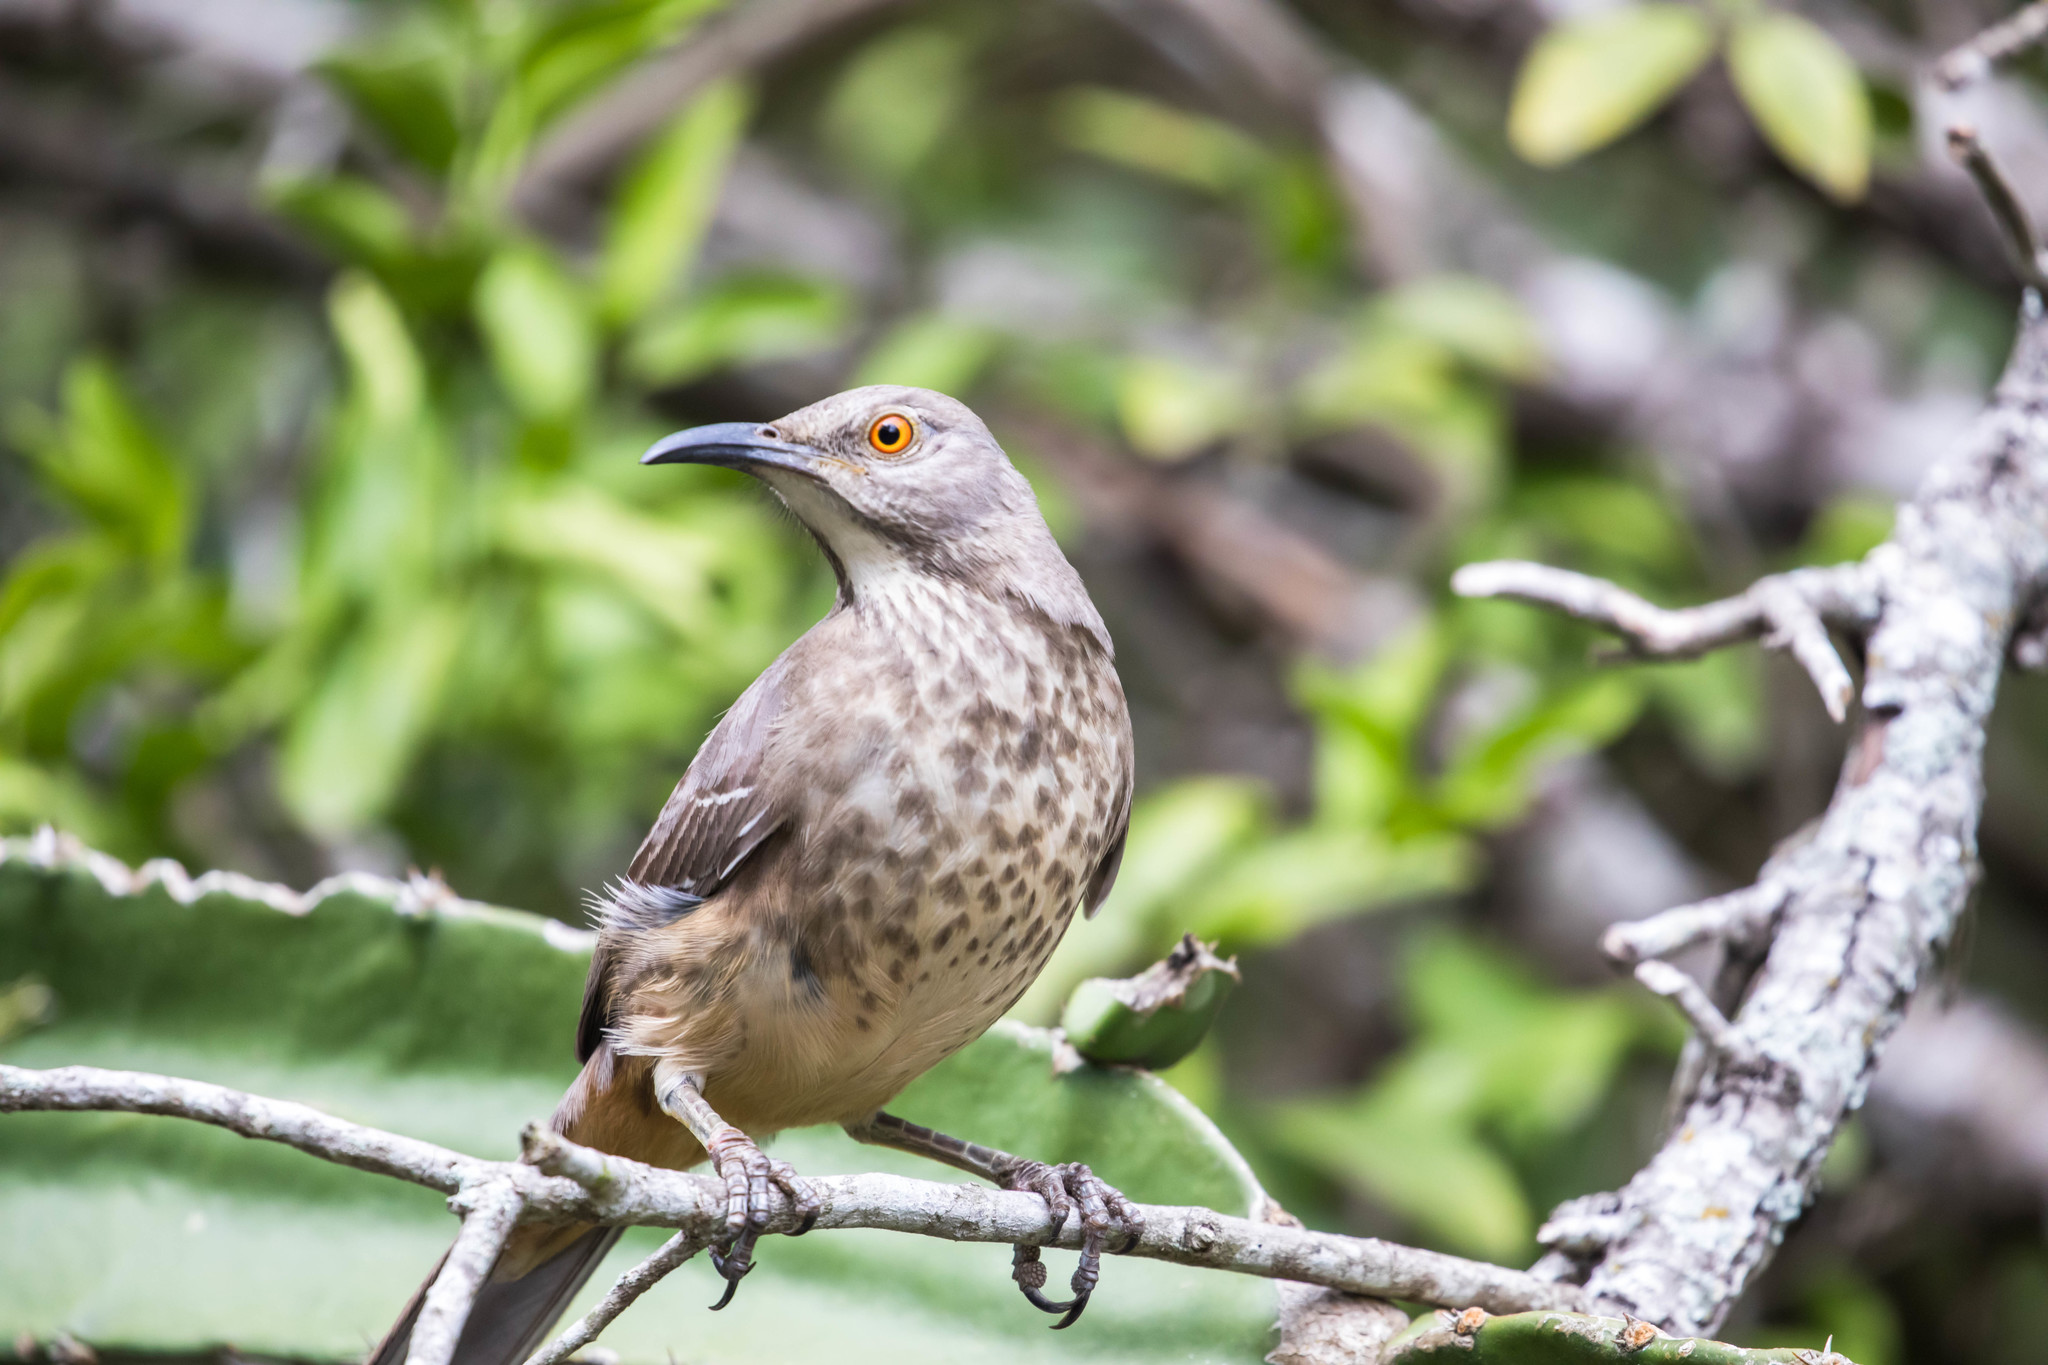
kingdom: Animalia
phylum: Chordata
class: Aves
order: Passeriformes
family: Mimidae
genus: Toxostoma
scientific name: Toxostoma curvirostre
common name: Curve-billed thrasher
